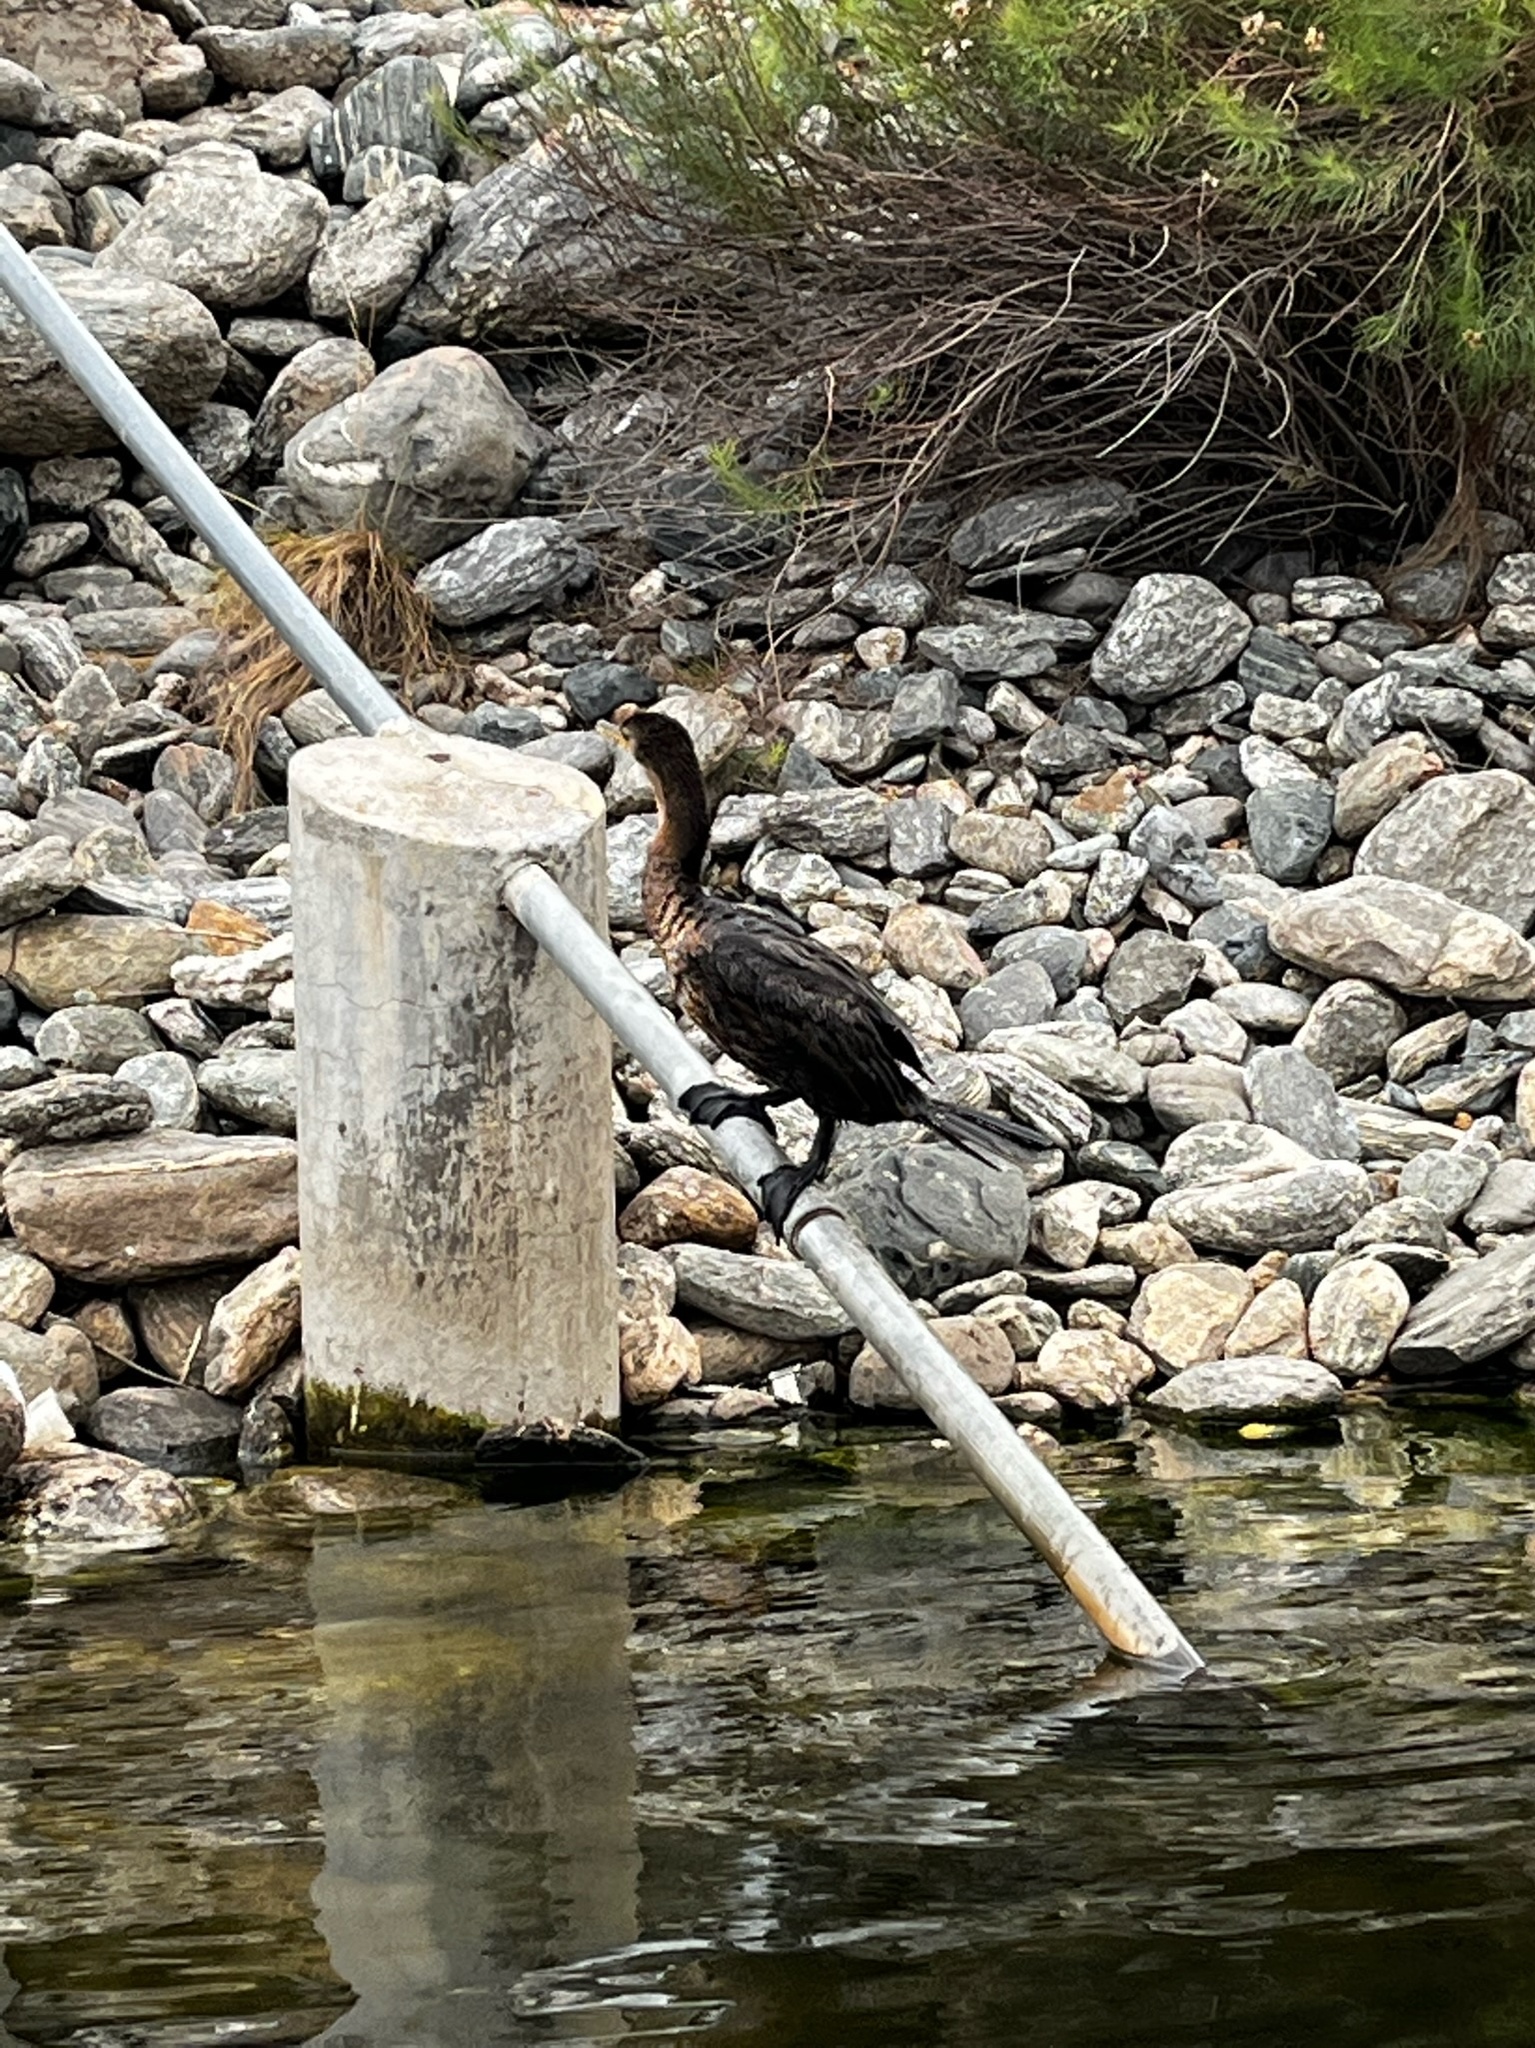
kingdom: Animalia
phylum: Chordata
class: Aves
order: Suliformes
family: Phalacrocoracidae
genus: Phalacrocorax
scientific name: Phalacrocorax brasilianus
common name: Neotropic cormorant
